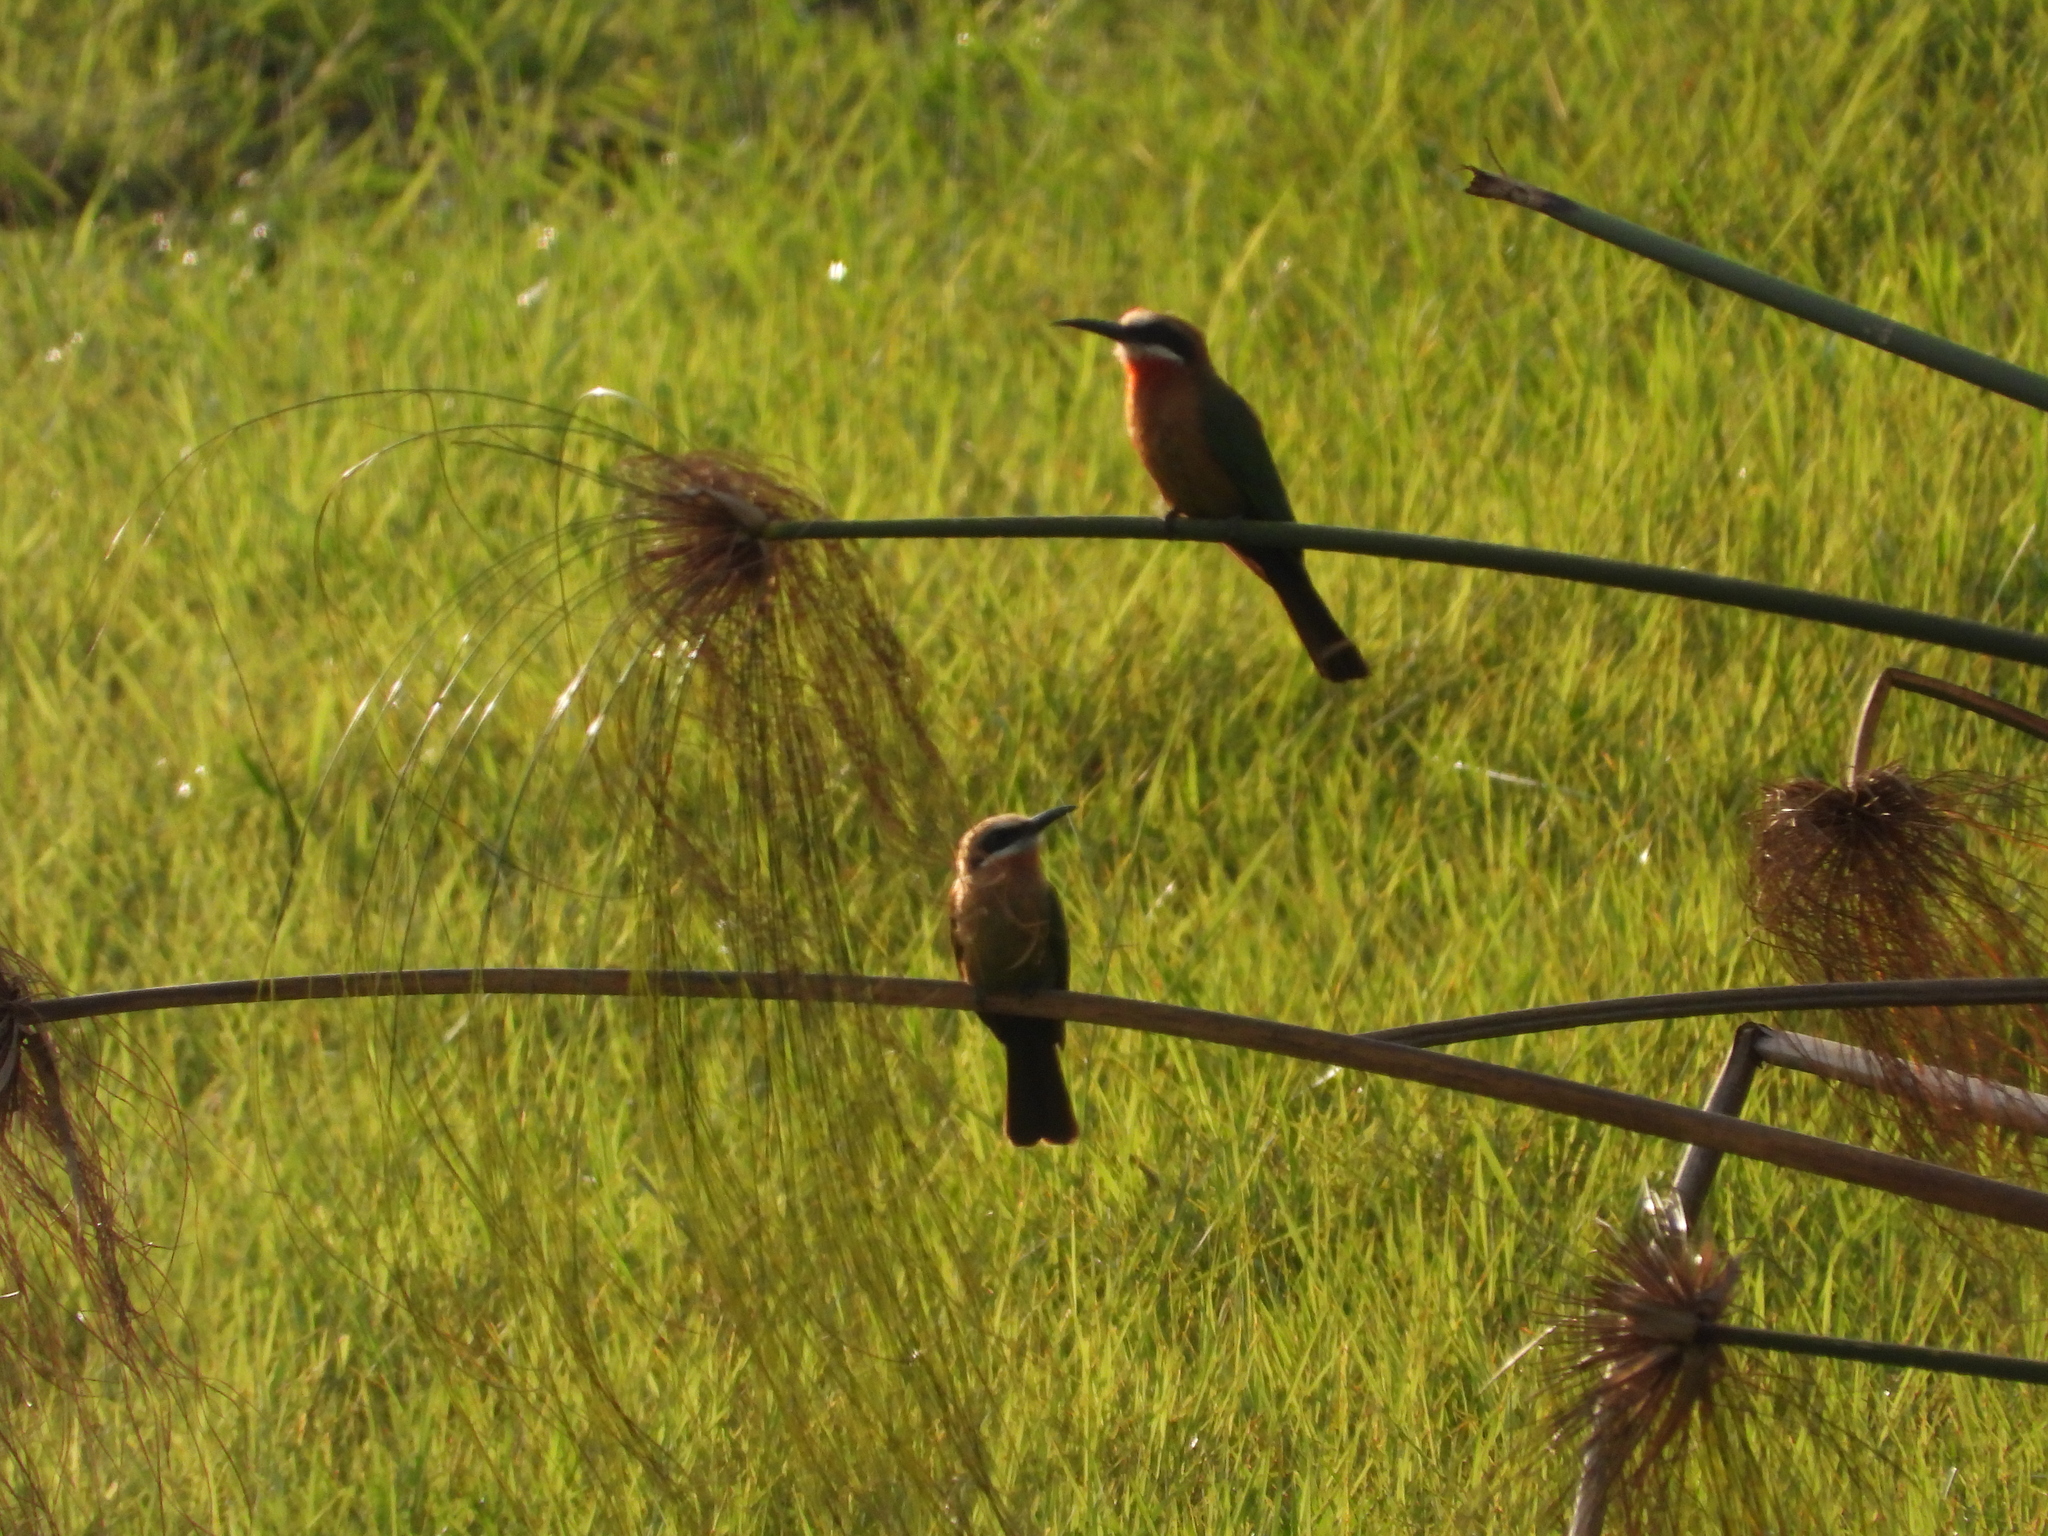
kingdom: Animalia
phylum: Chordata
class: Aves
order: Coraciiformes
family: Meropidae
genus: Merops
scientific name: Merops bullockoides
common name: White-fronted bee-eater
